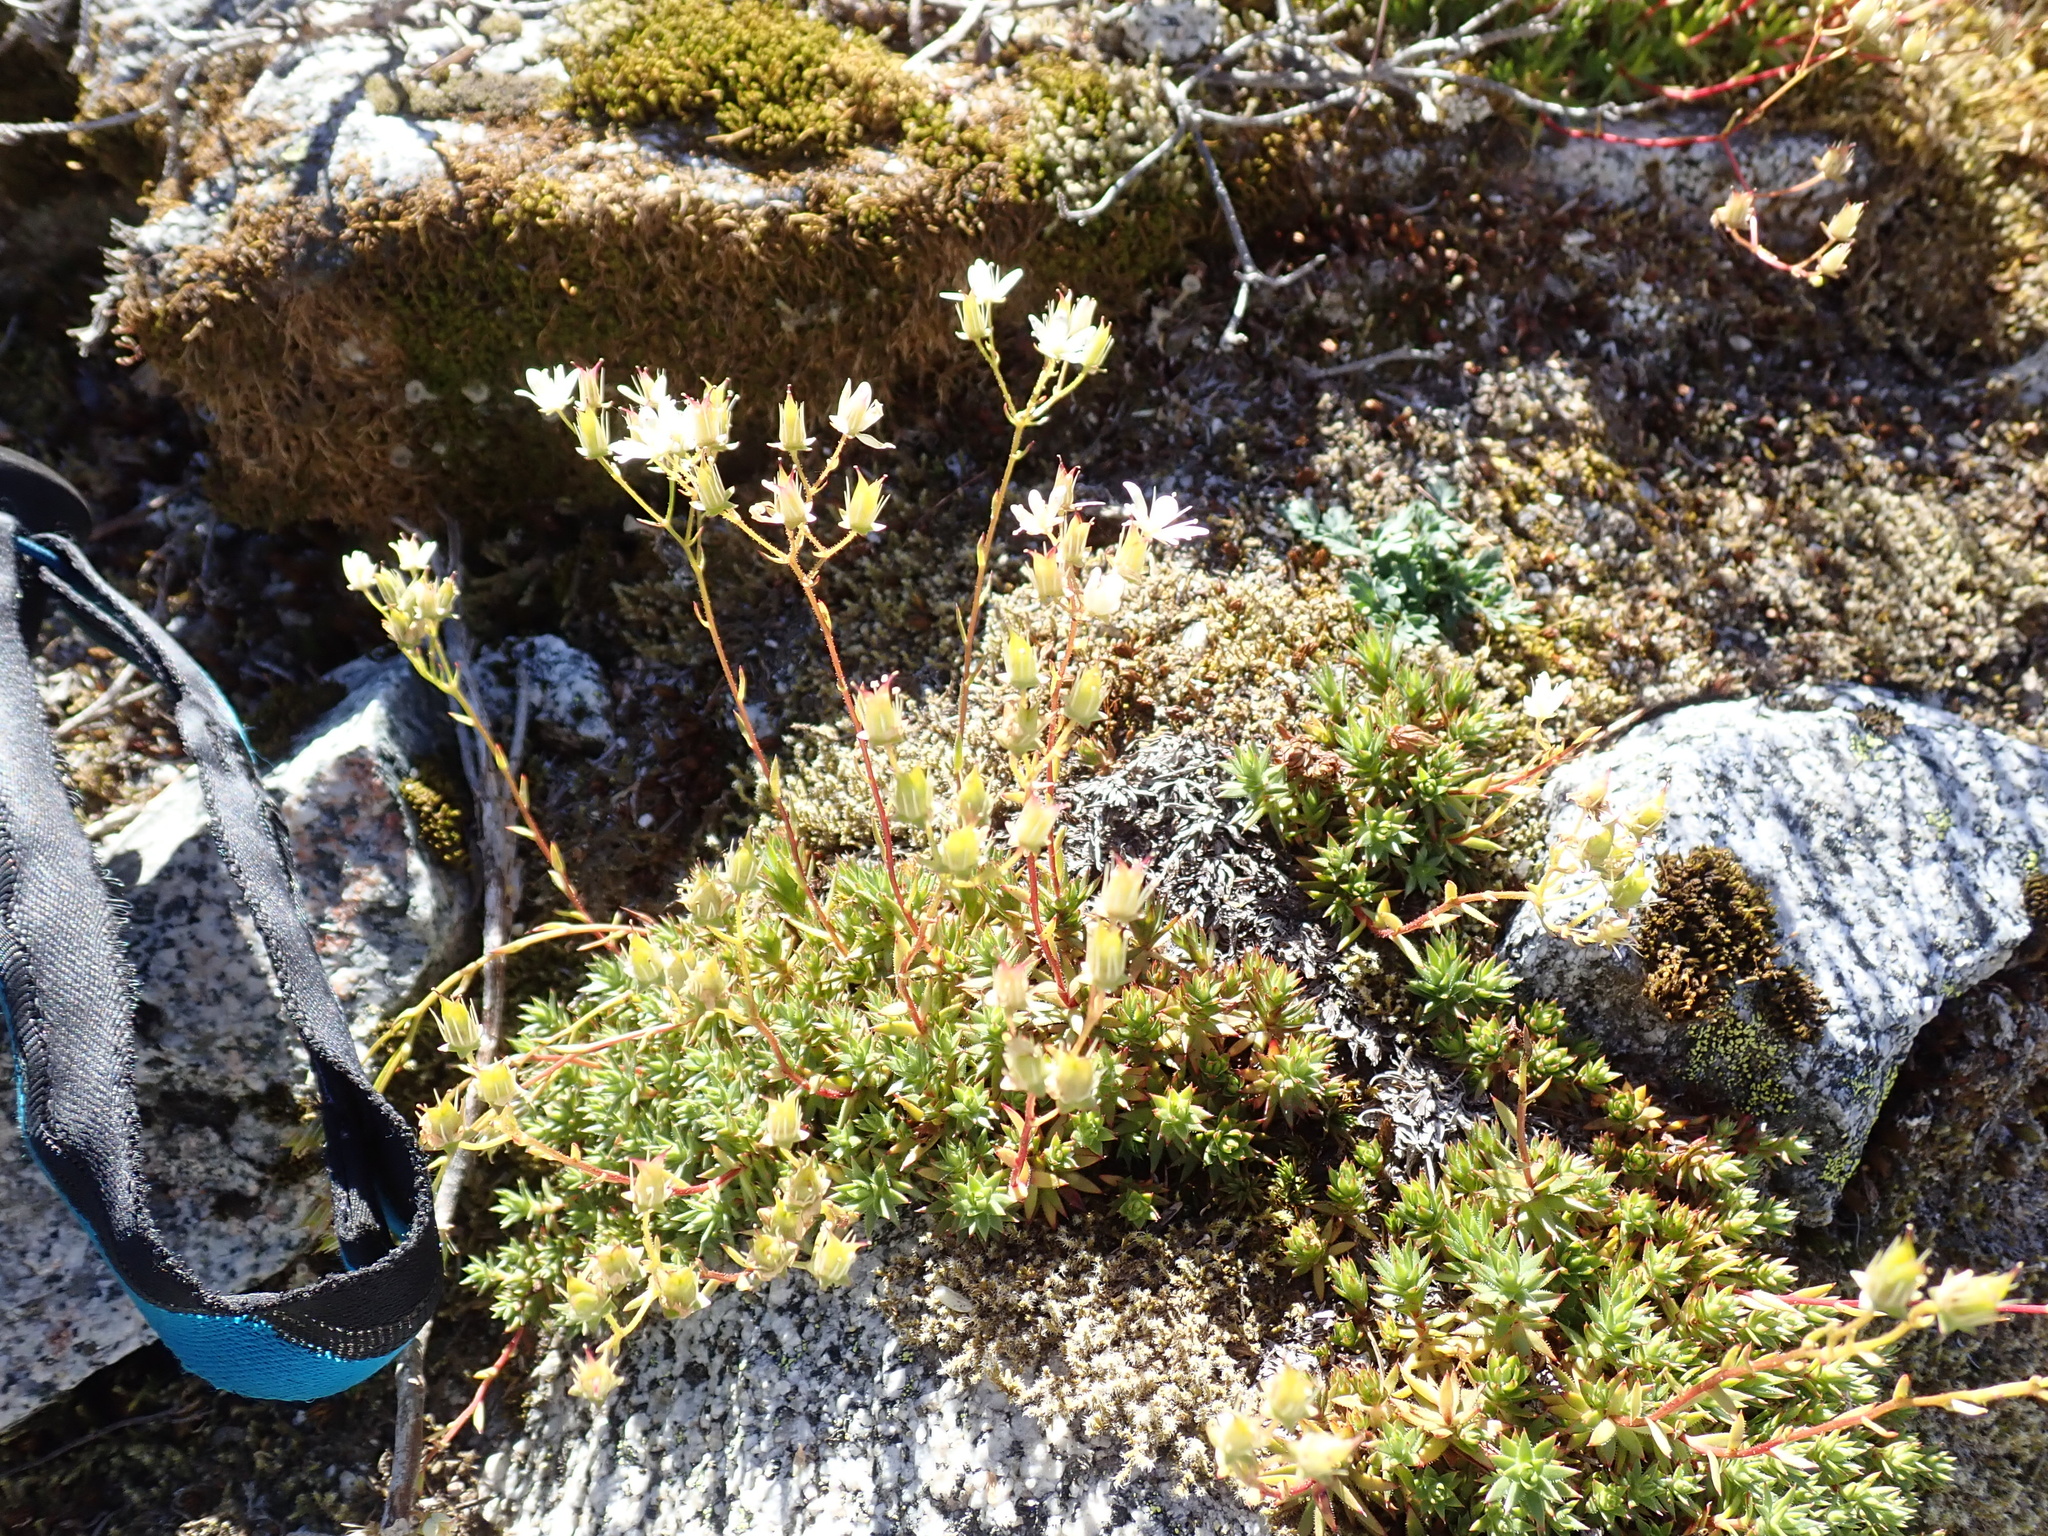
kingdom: Plantae
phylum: Tracheophyta
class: Magnoliopsida
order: Saxifragales
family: Saxifragaceae
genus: Saxifraga
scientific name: Saxifraga bronchialis
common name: Matted saxifrage
